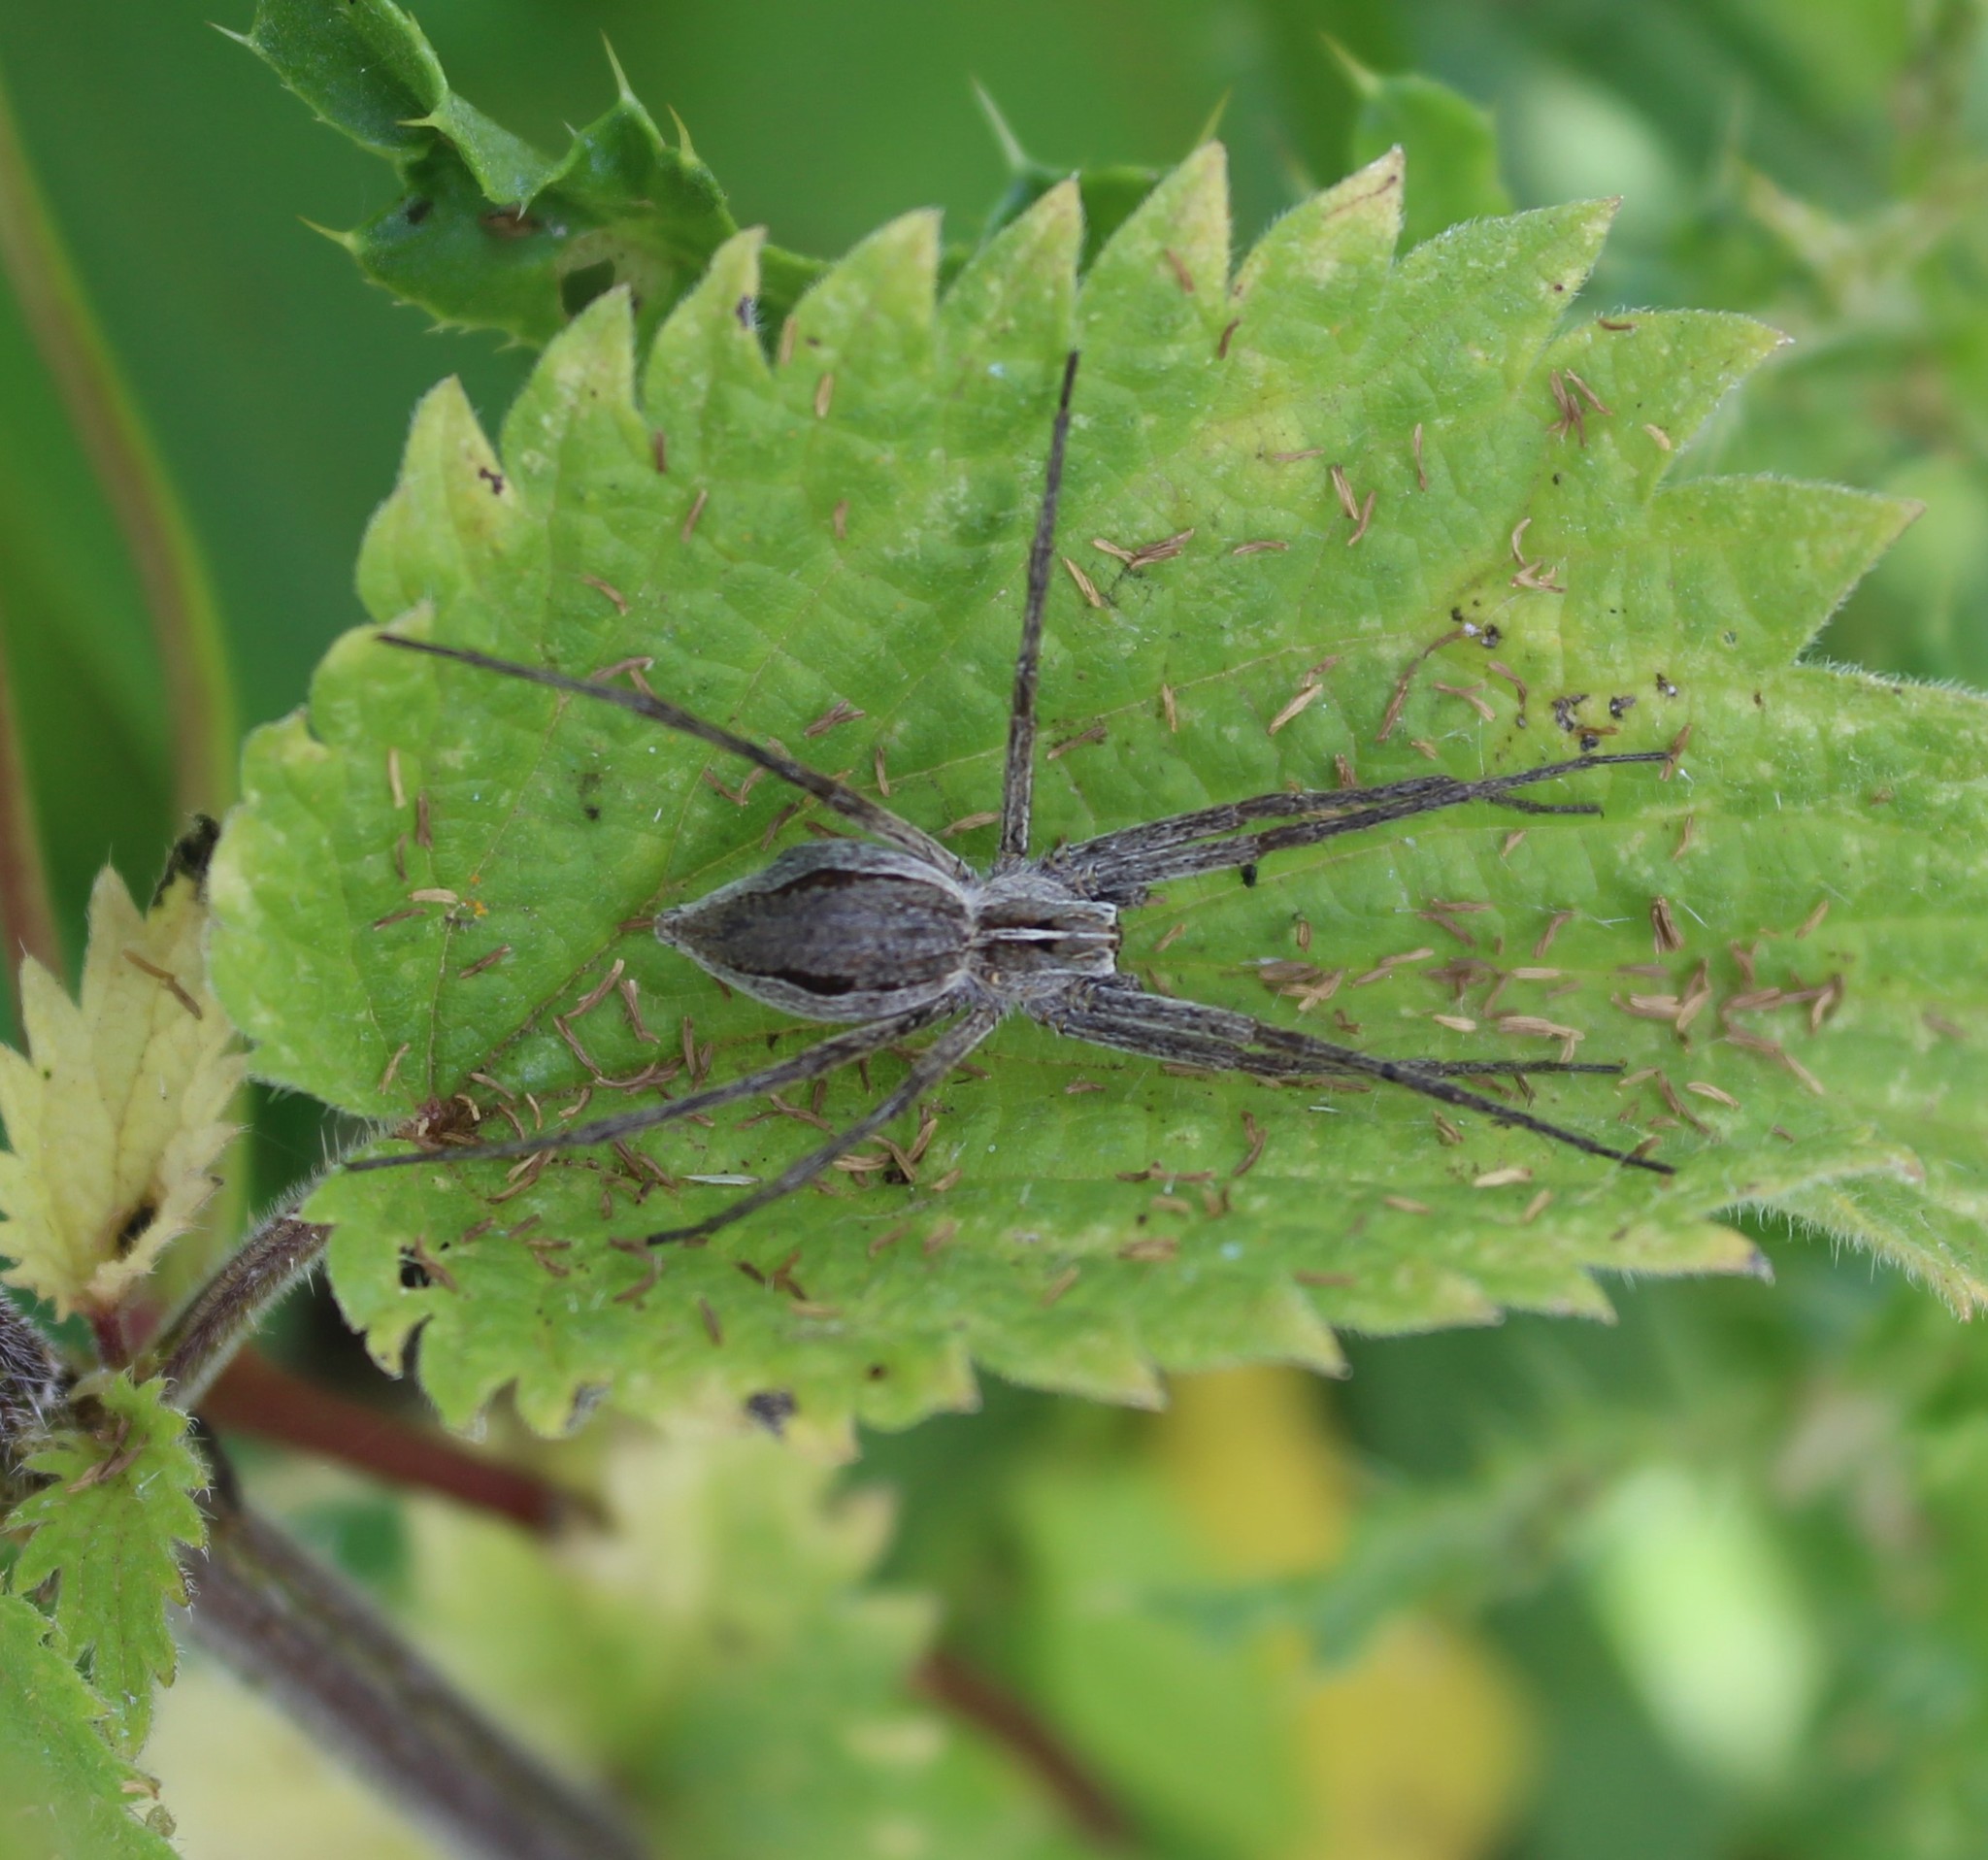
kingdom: Animalia
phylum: Arthropoda
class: Arachnida
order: Araneae
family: Pisauridae
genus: Pisaura
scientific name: Pisaura mirabilis
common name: Tent spider
